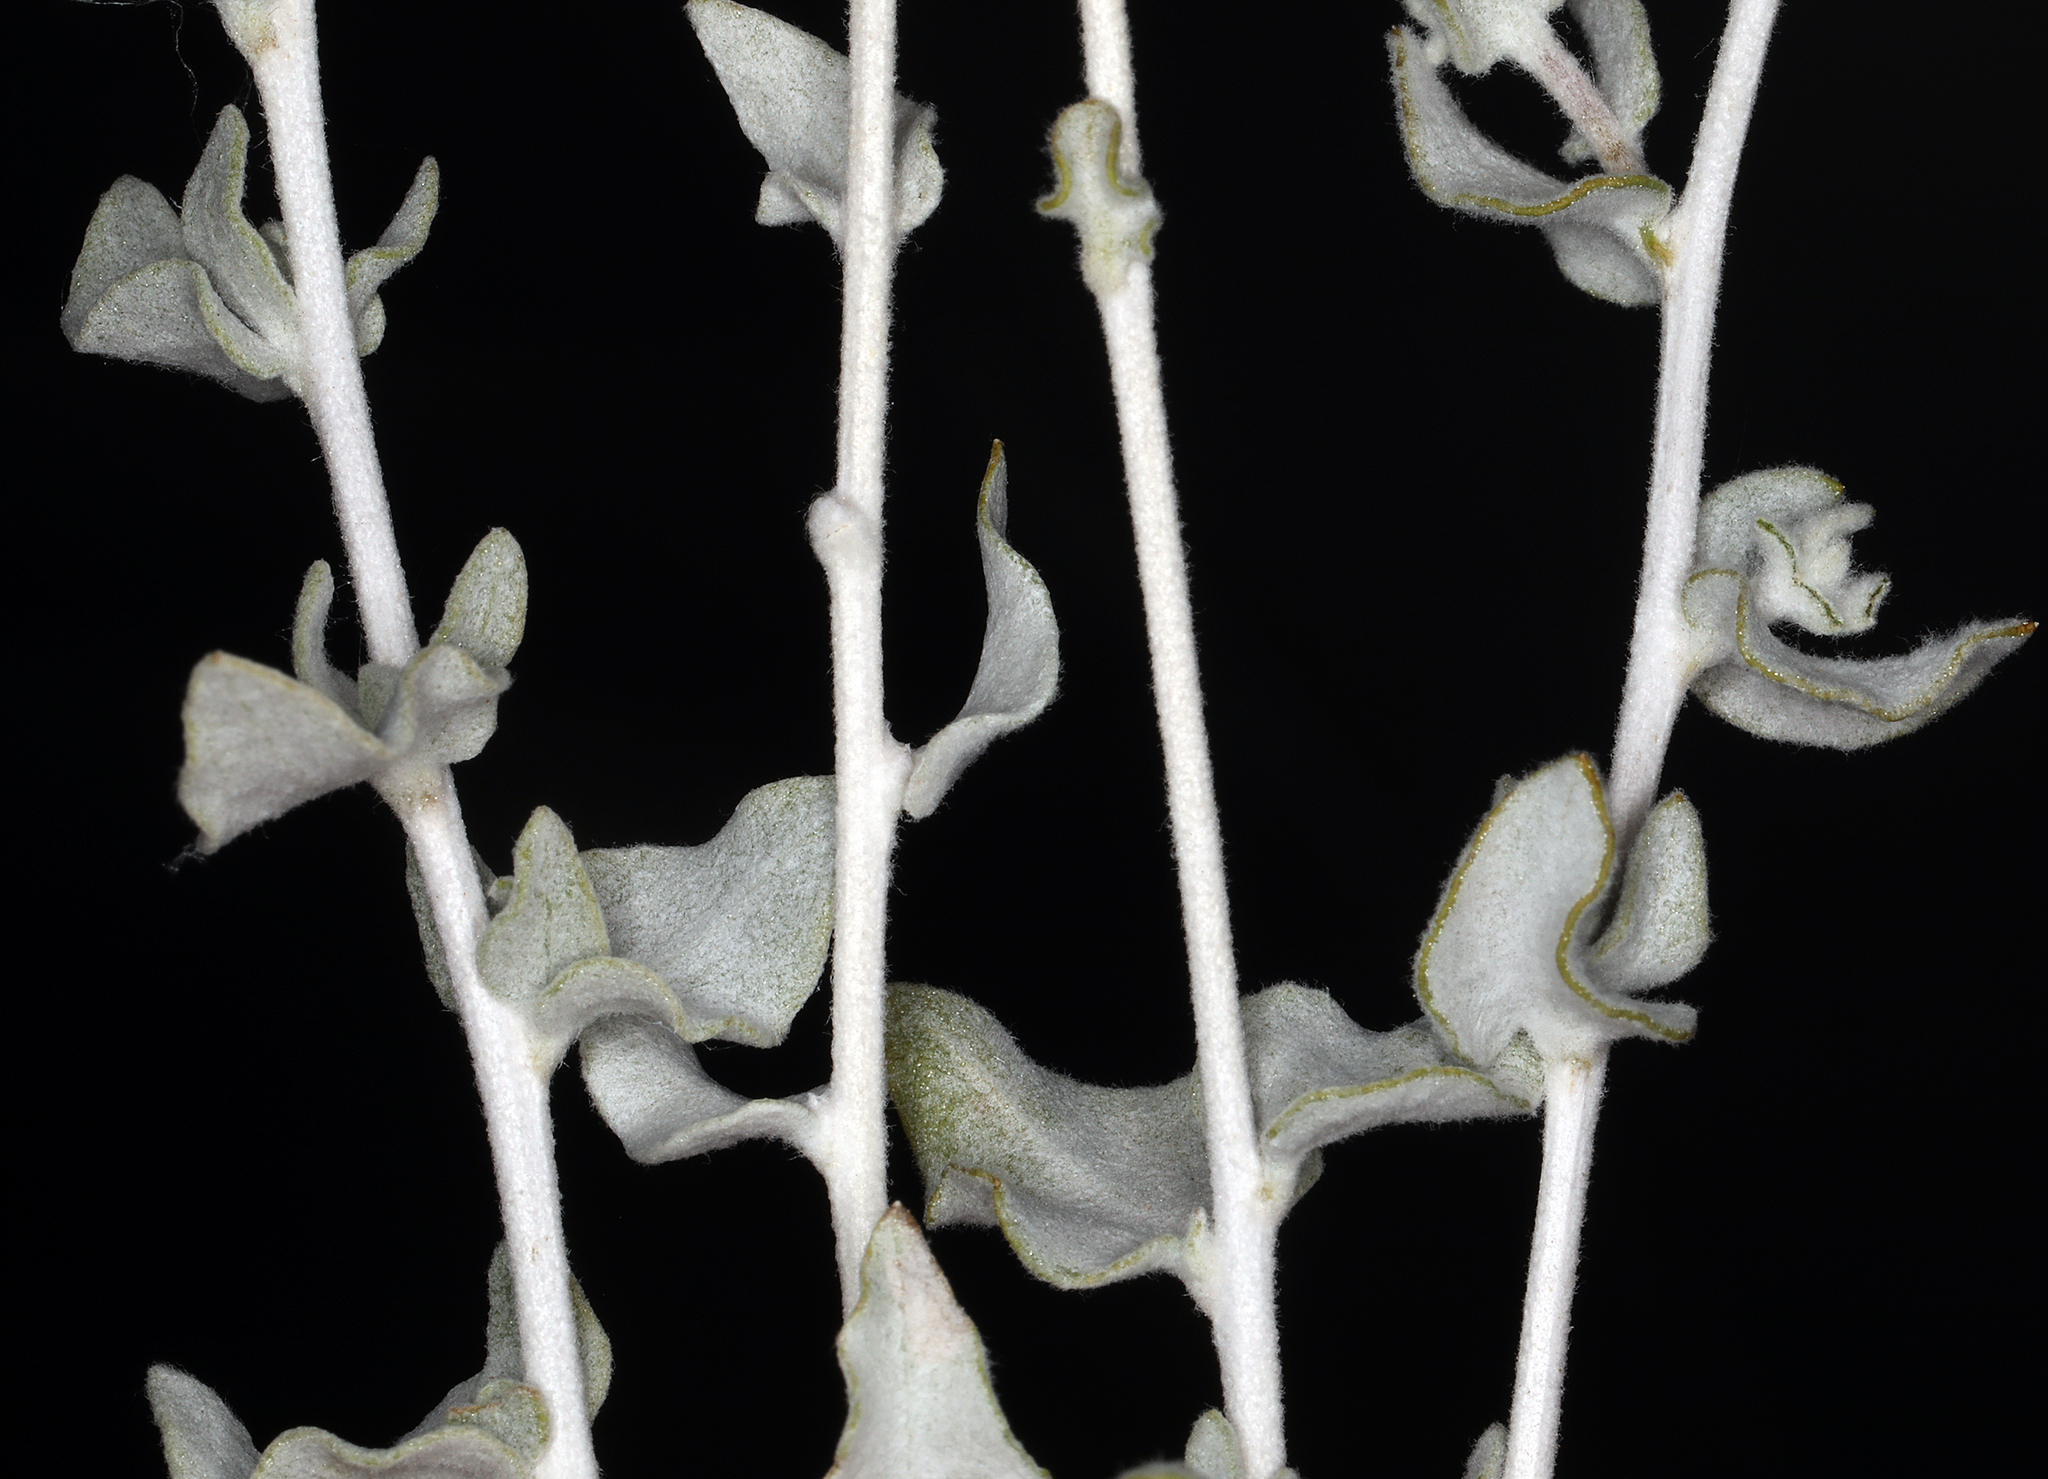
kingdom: Plantae
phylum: Tracheophyta
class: Magnoliopsida
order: Asterales
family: Asteraceae
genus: Brickellia
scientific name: Brickellia incana
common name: Woolly brickelbush
